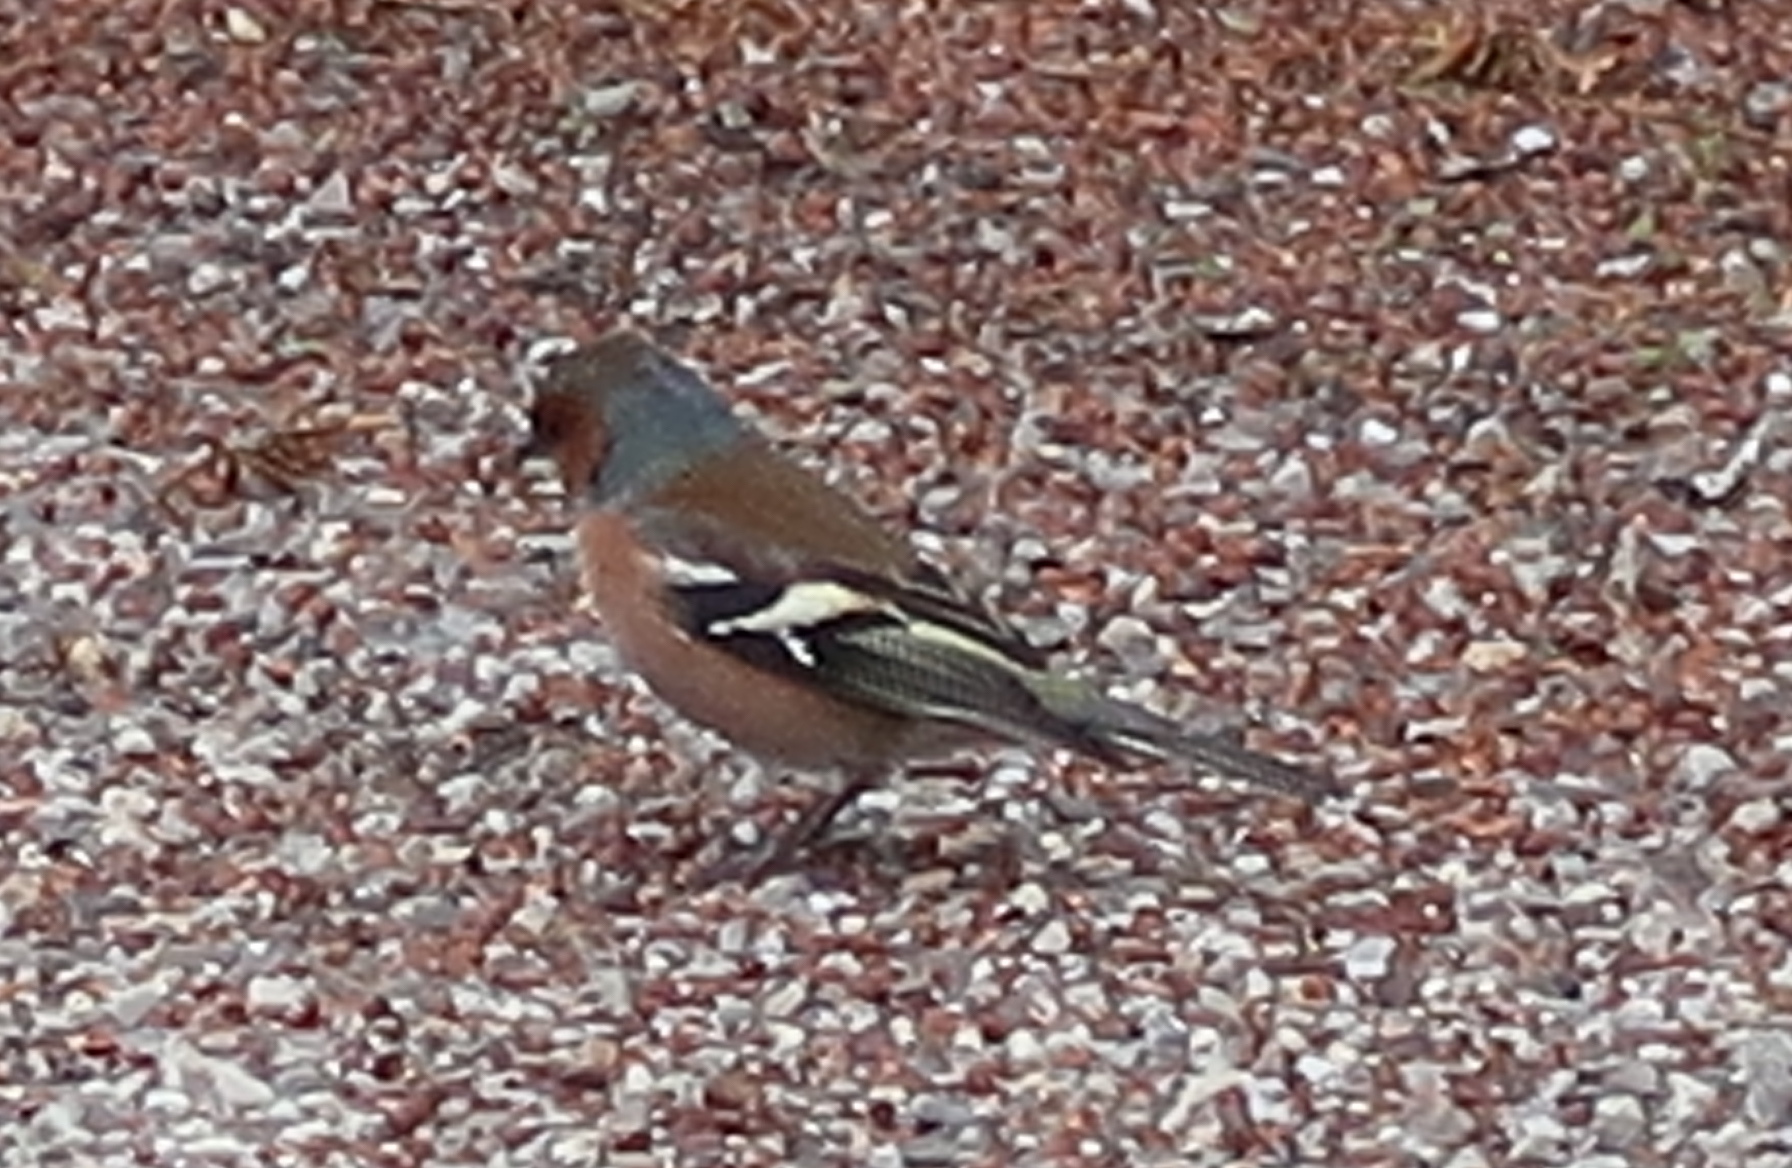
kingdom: Animalia
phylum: Chordata
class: Aves
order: Passeriformes
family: Fringillidae
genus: Fringilla
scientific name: Fringilla coelebs
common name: Common chaffinch
